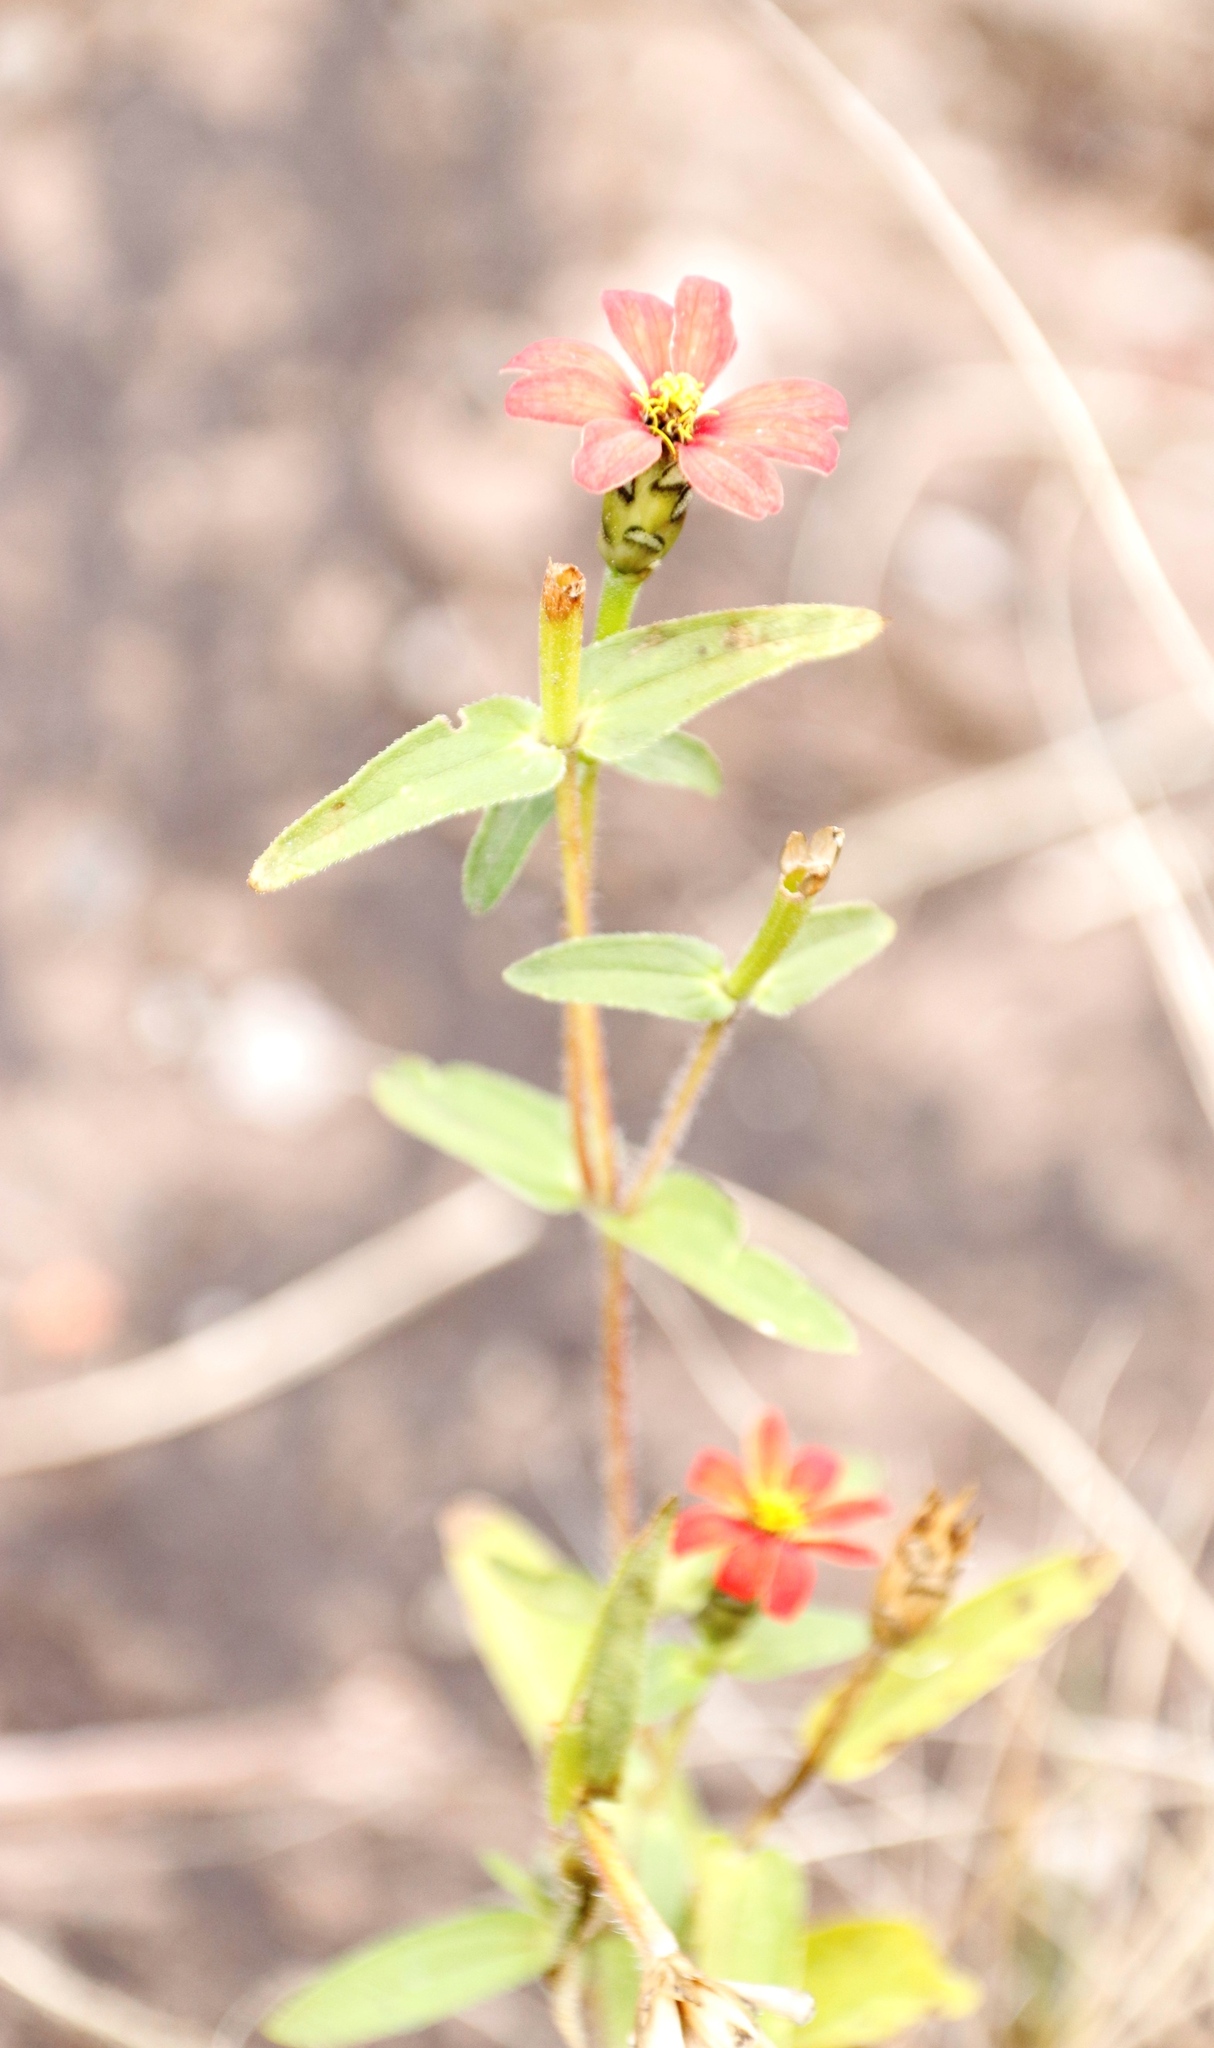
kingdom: Plantae
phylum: Tracheophyta
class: Magnoliopsida
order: Asterales
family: Asteraceae
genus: Zinnia
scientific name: Zinnia peruviana
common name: Peruvian zinnia
